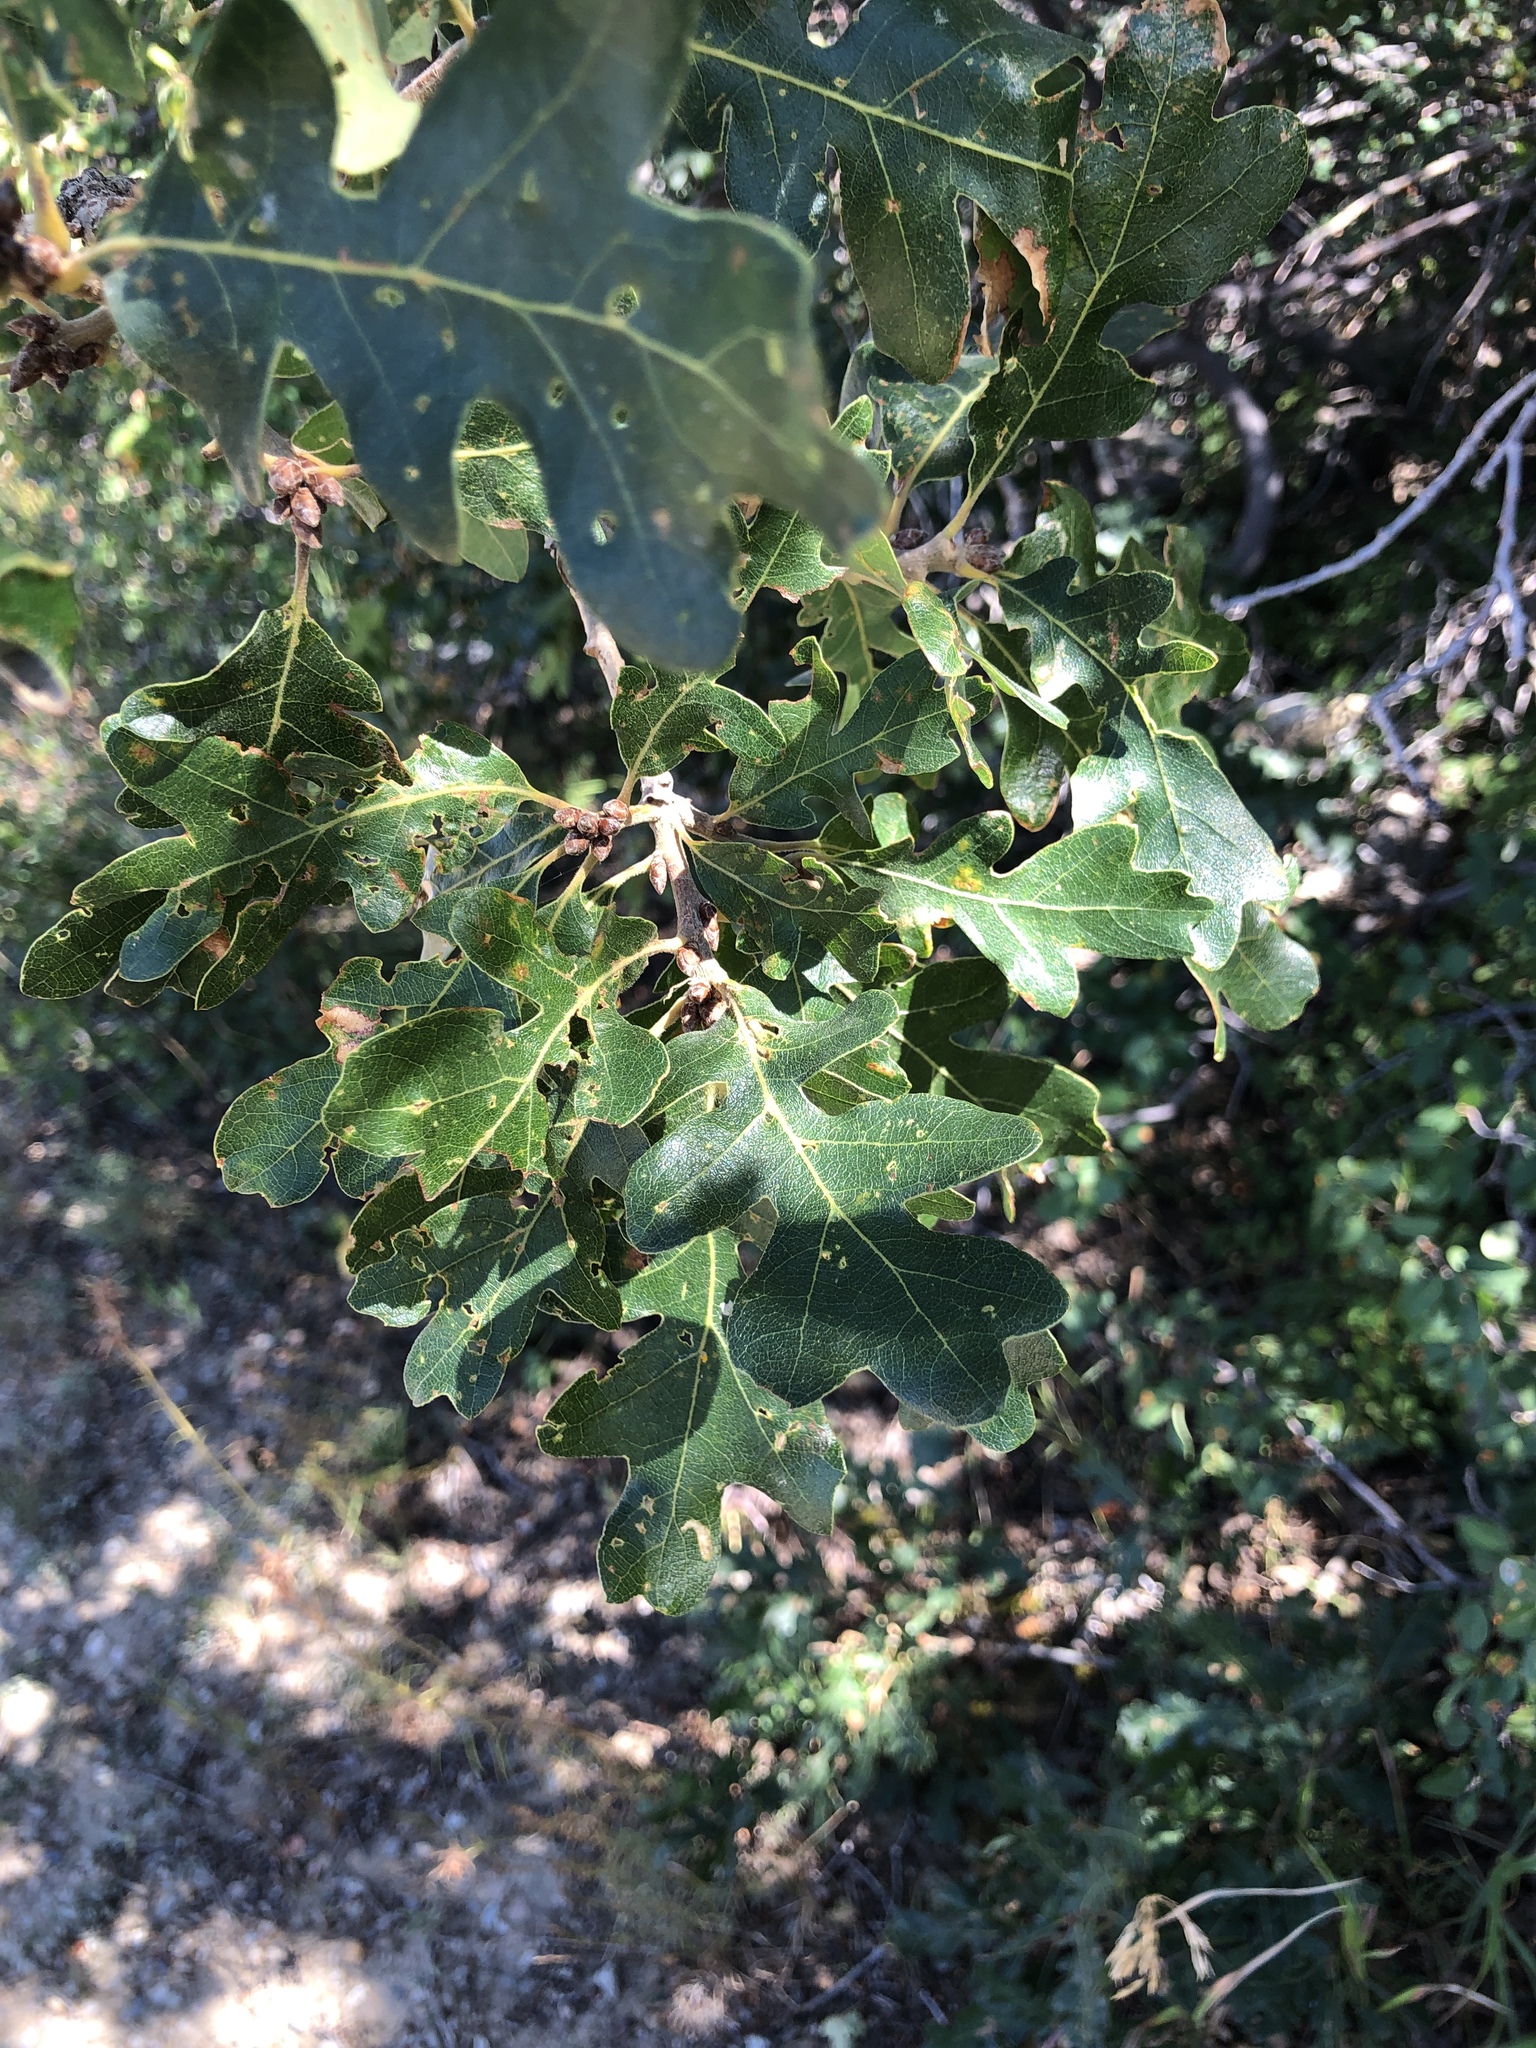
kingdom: Plantae
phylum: Tracheophyta
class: Magnoliopsida
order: Fagales
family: Fagaceae
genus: Quercus
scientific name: Quercus gambelii
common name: Gambel oak
